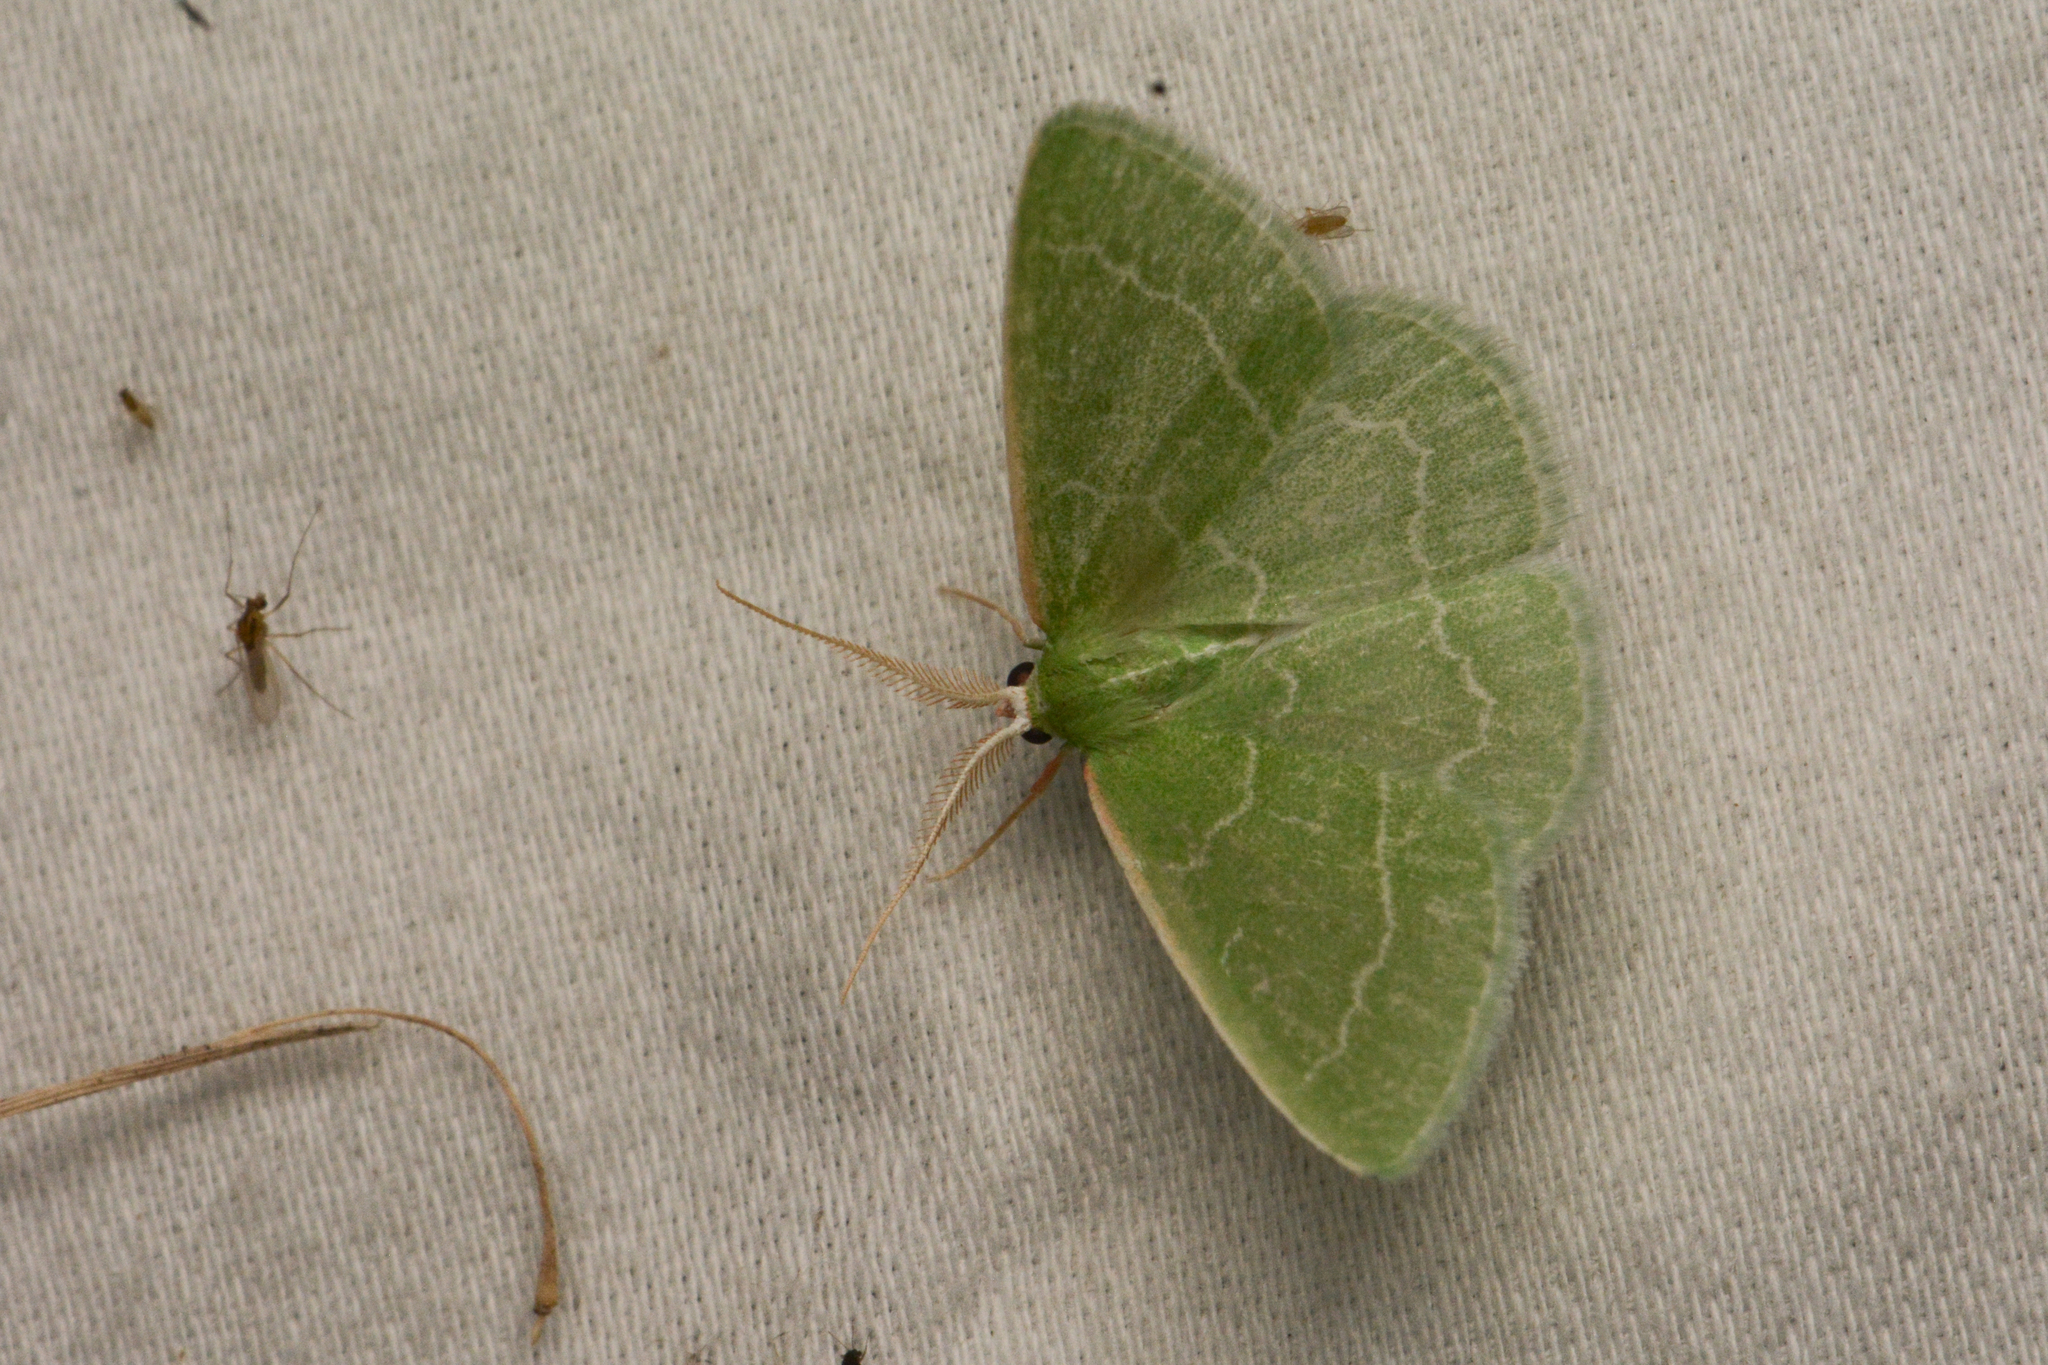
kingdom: Animalia
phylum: Arthropoda
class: Insecta
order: Lepidoptera
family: Geometridae
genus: Synchlora
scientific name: Synchlora aerata
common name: Wavy-lined emerald
